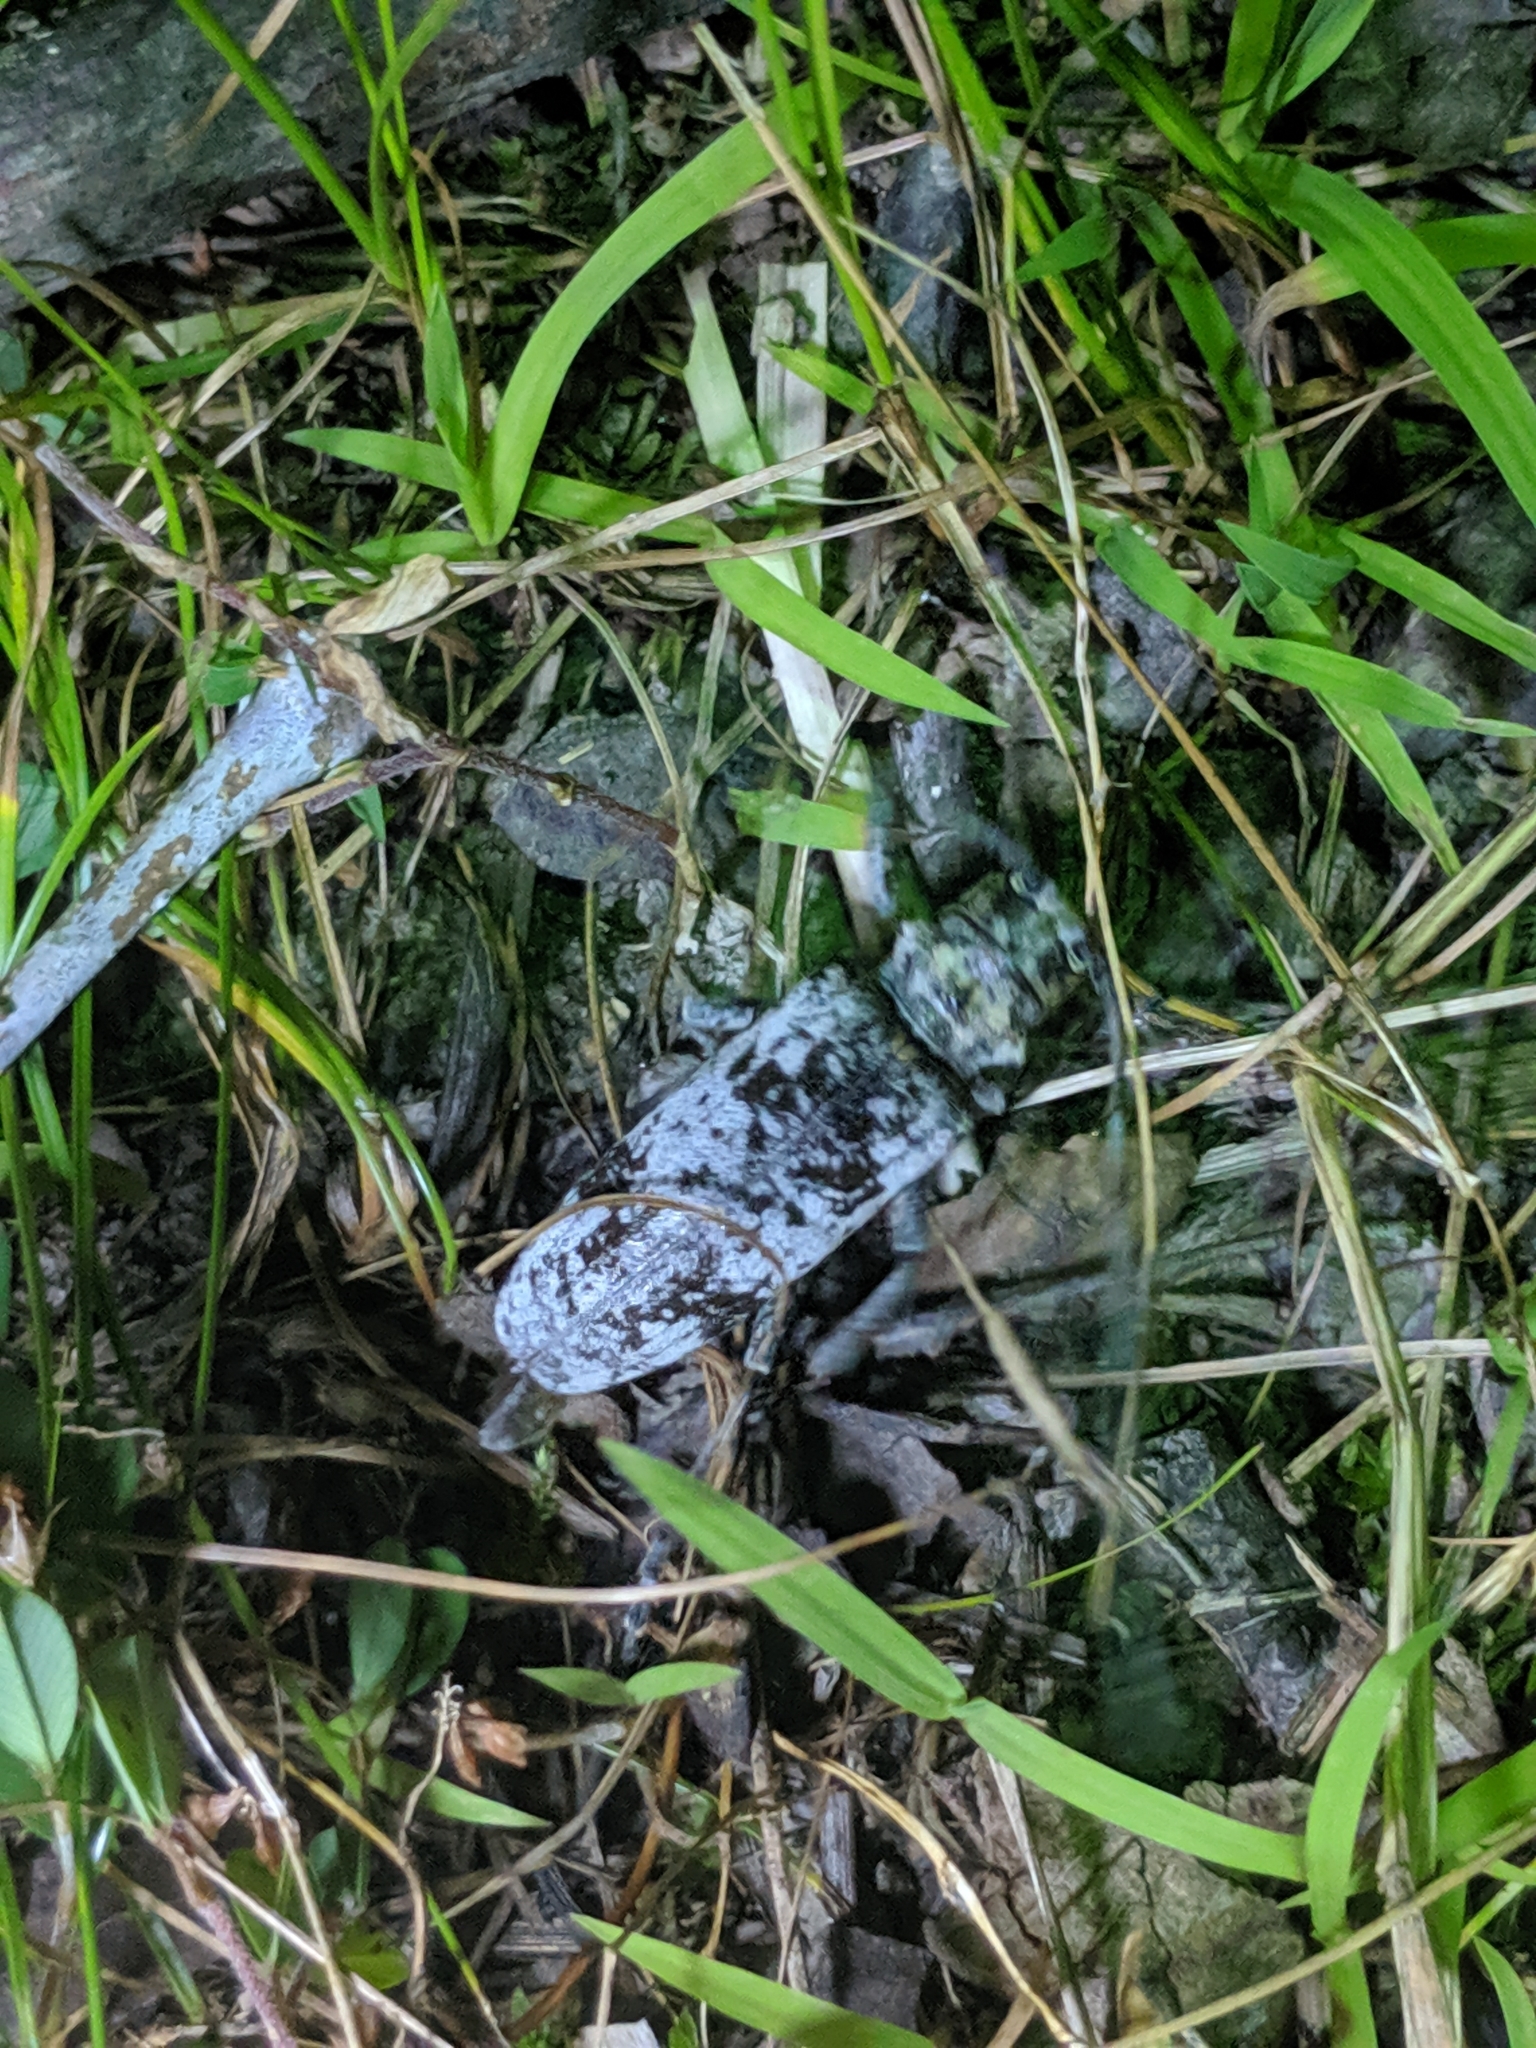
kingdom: Animalia
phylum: Arthropoda
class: Insecta
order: Coleoptera
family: Cerambycidae
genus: Goes
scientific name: Goes tigrinus
